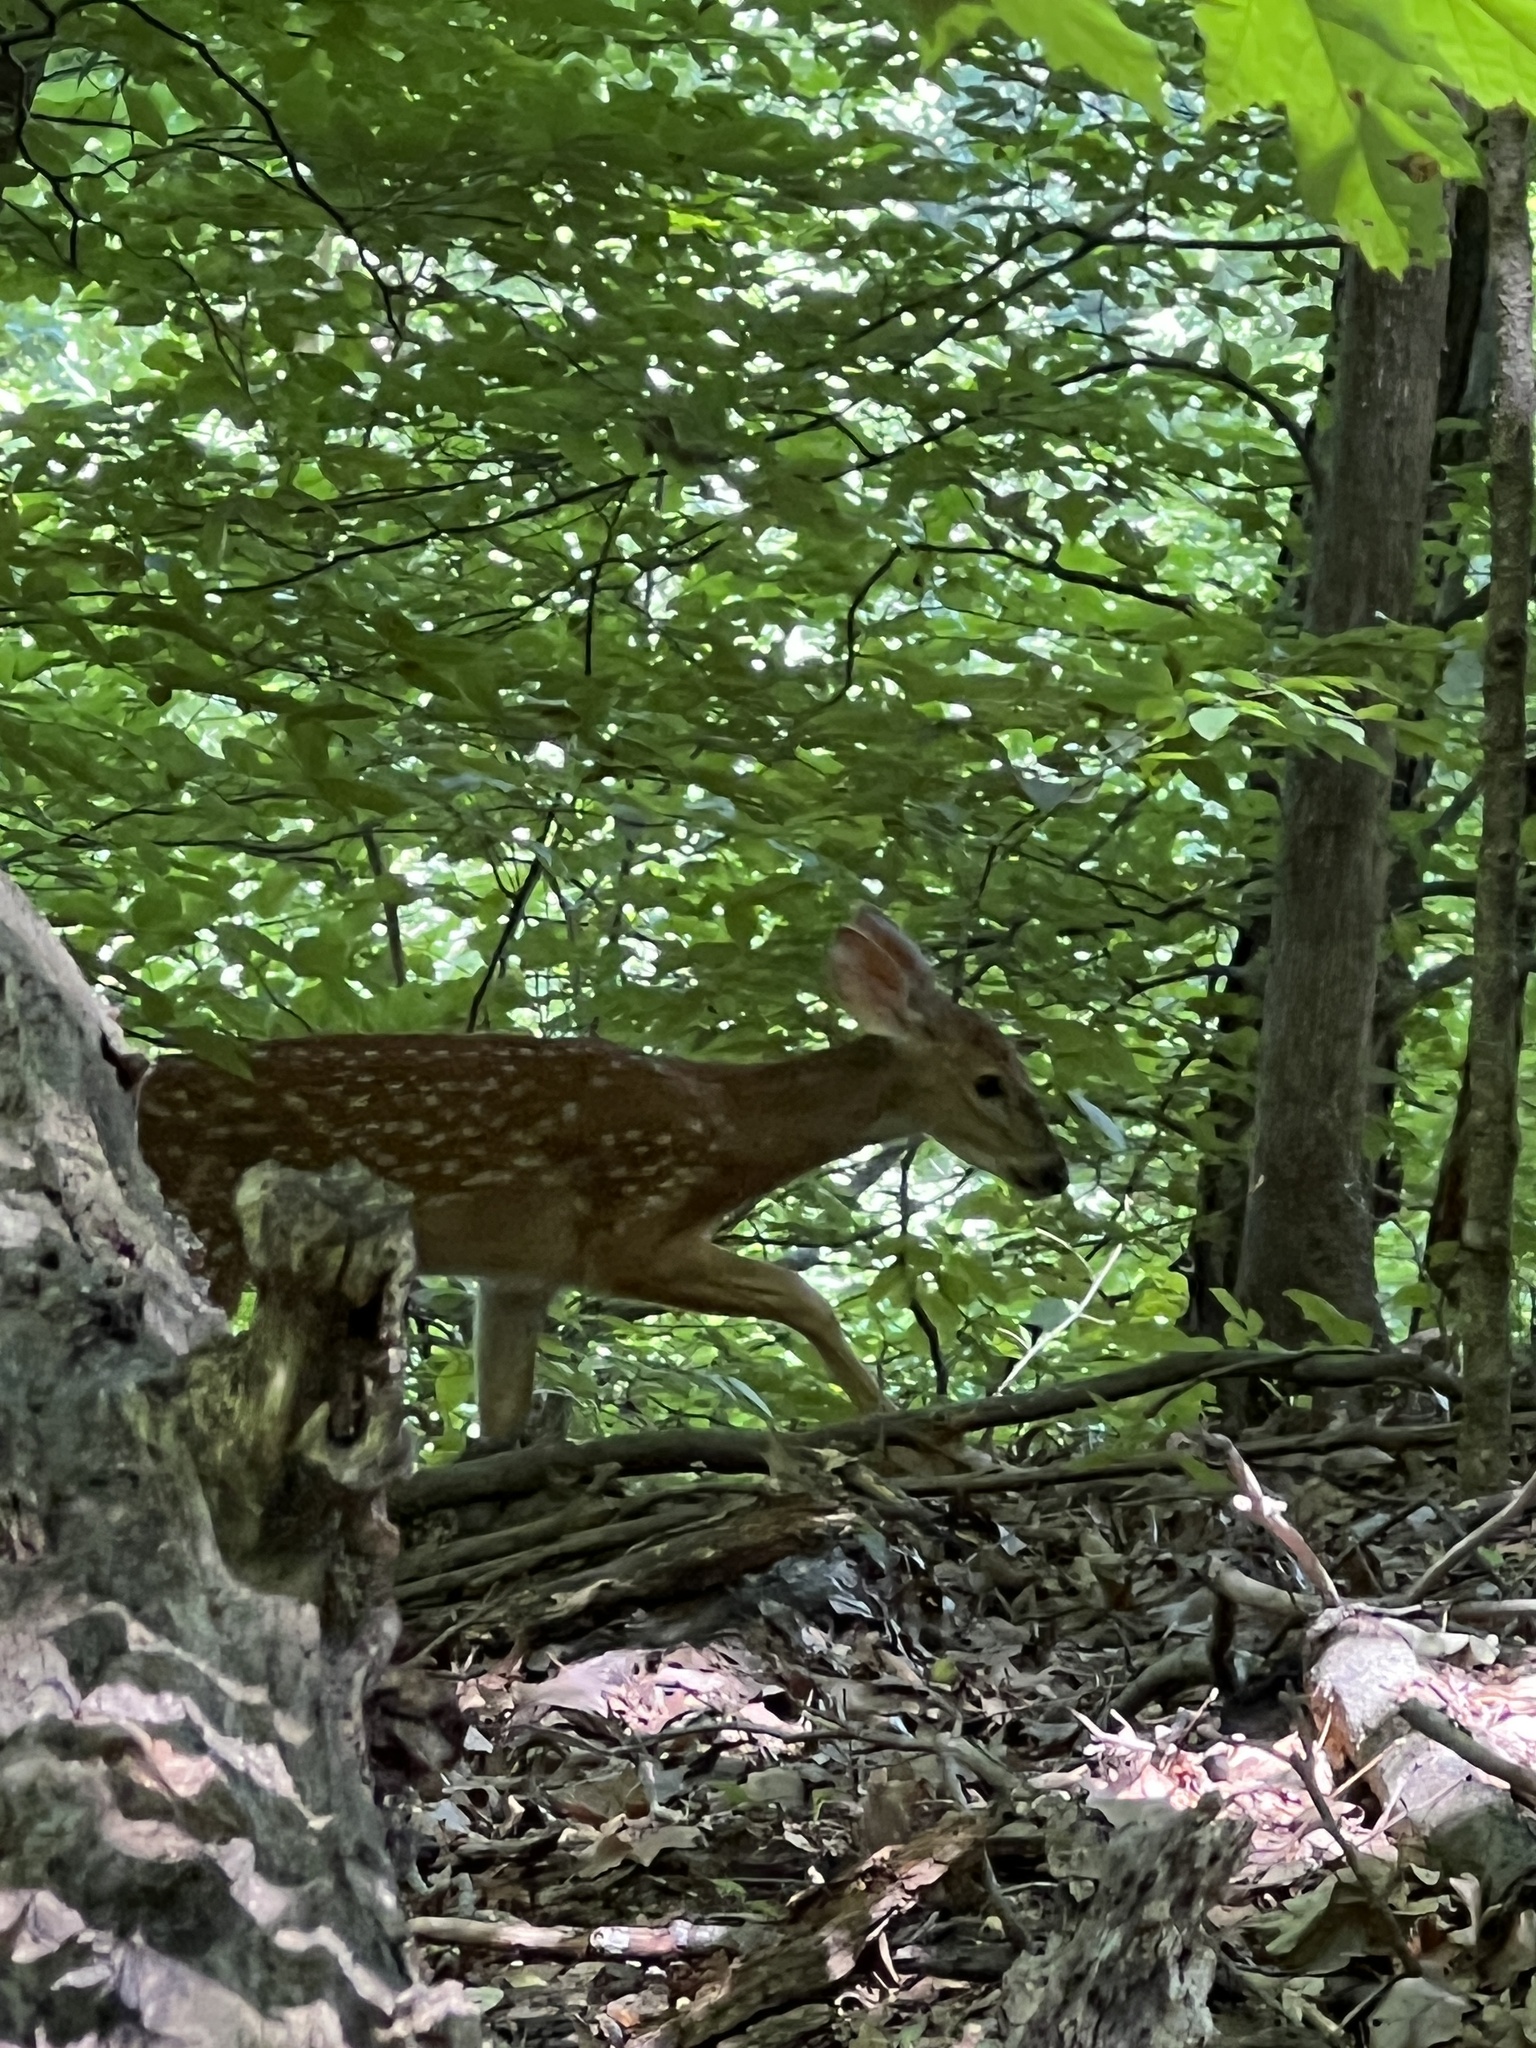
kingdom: Animalia
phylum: Chordata
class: Mammalia
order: Artiodactyla
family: Cervidae
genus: Odocoileus
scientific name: Odocoileus virginianus
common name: White-tailed deer
